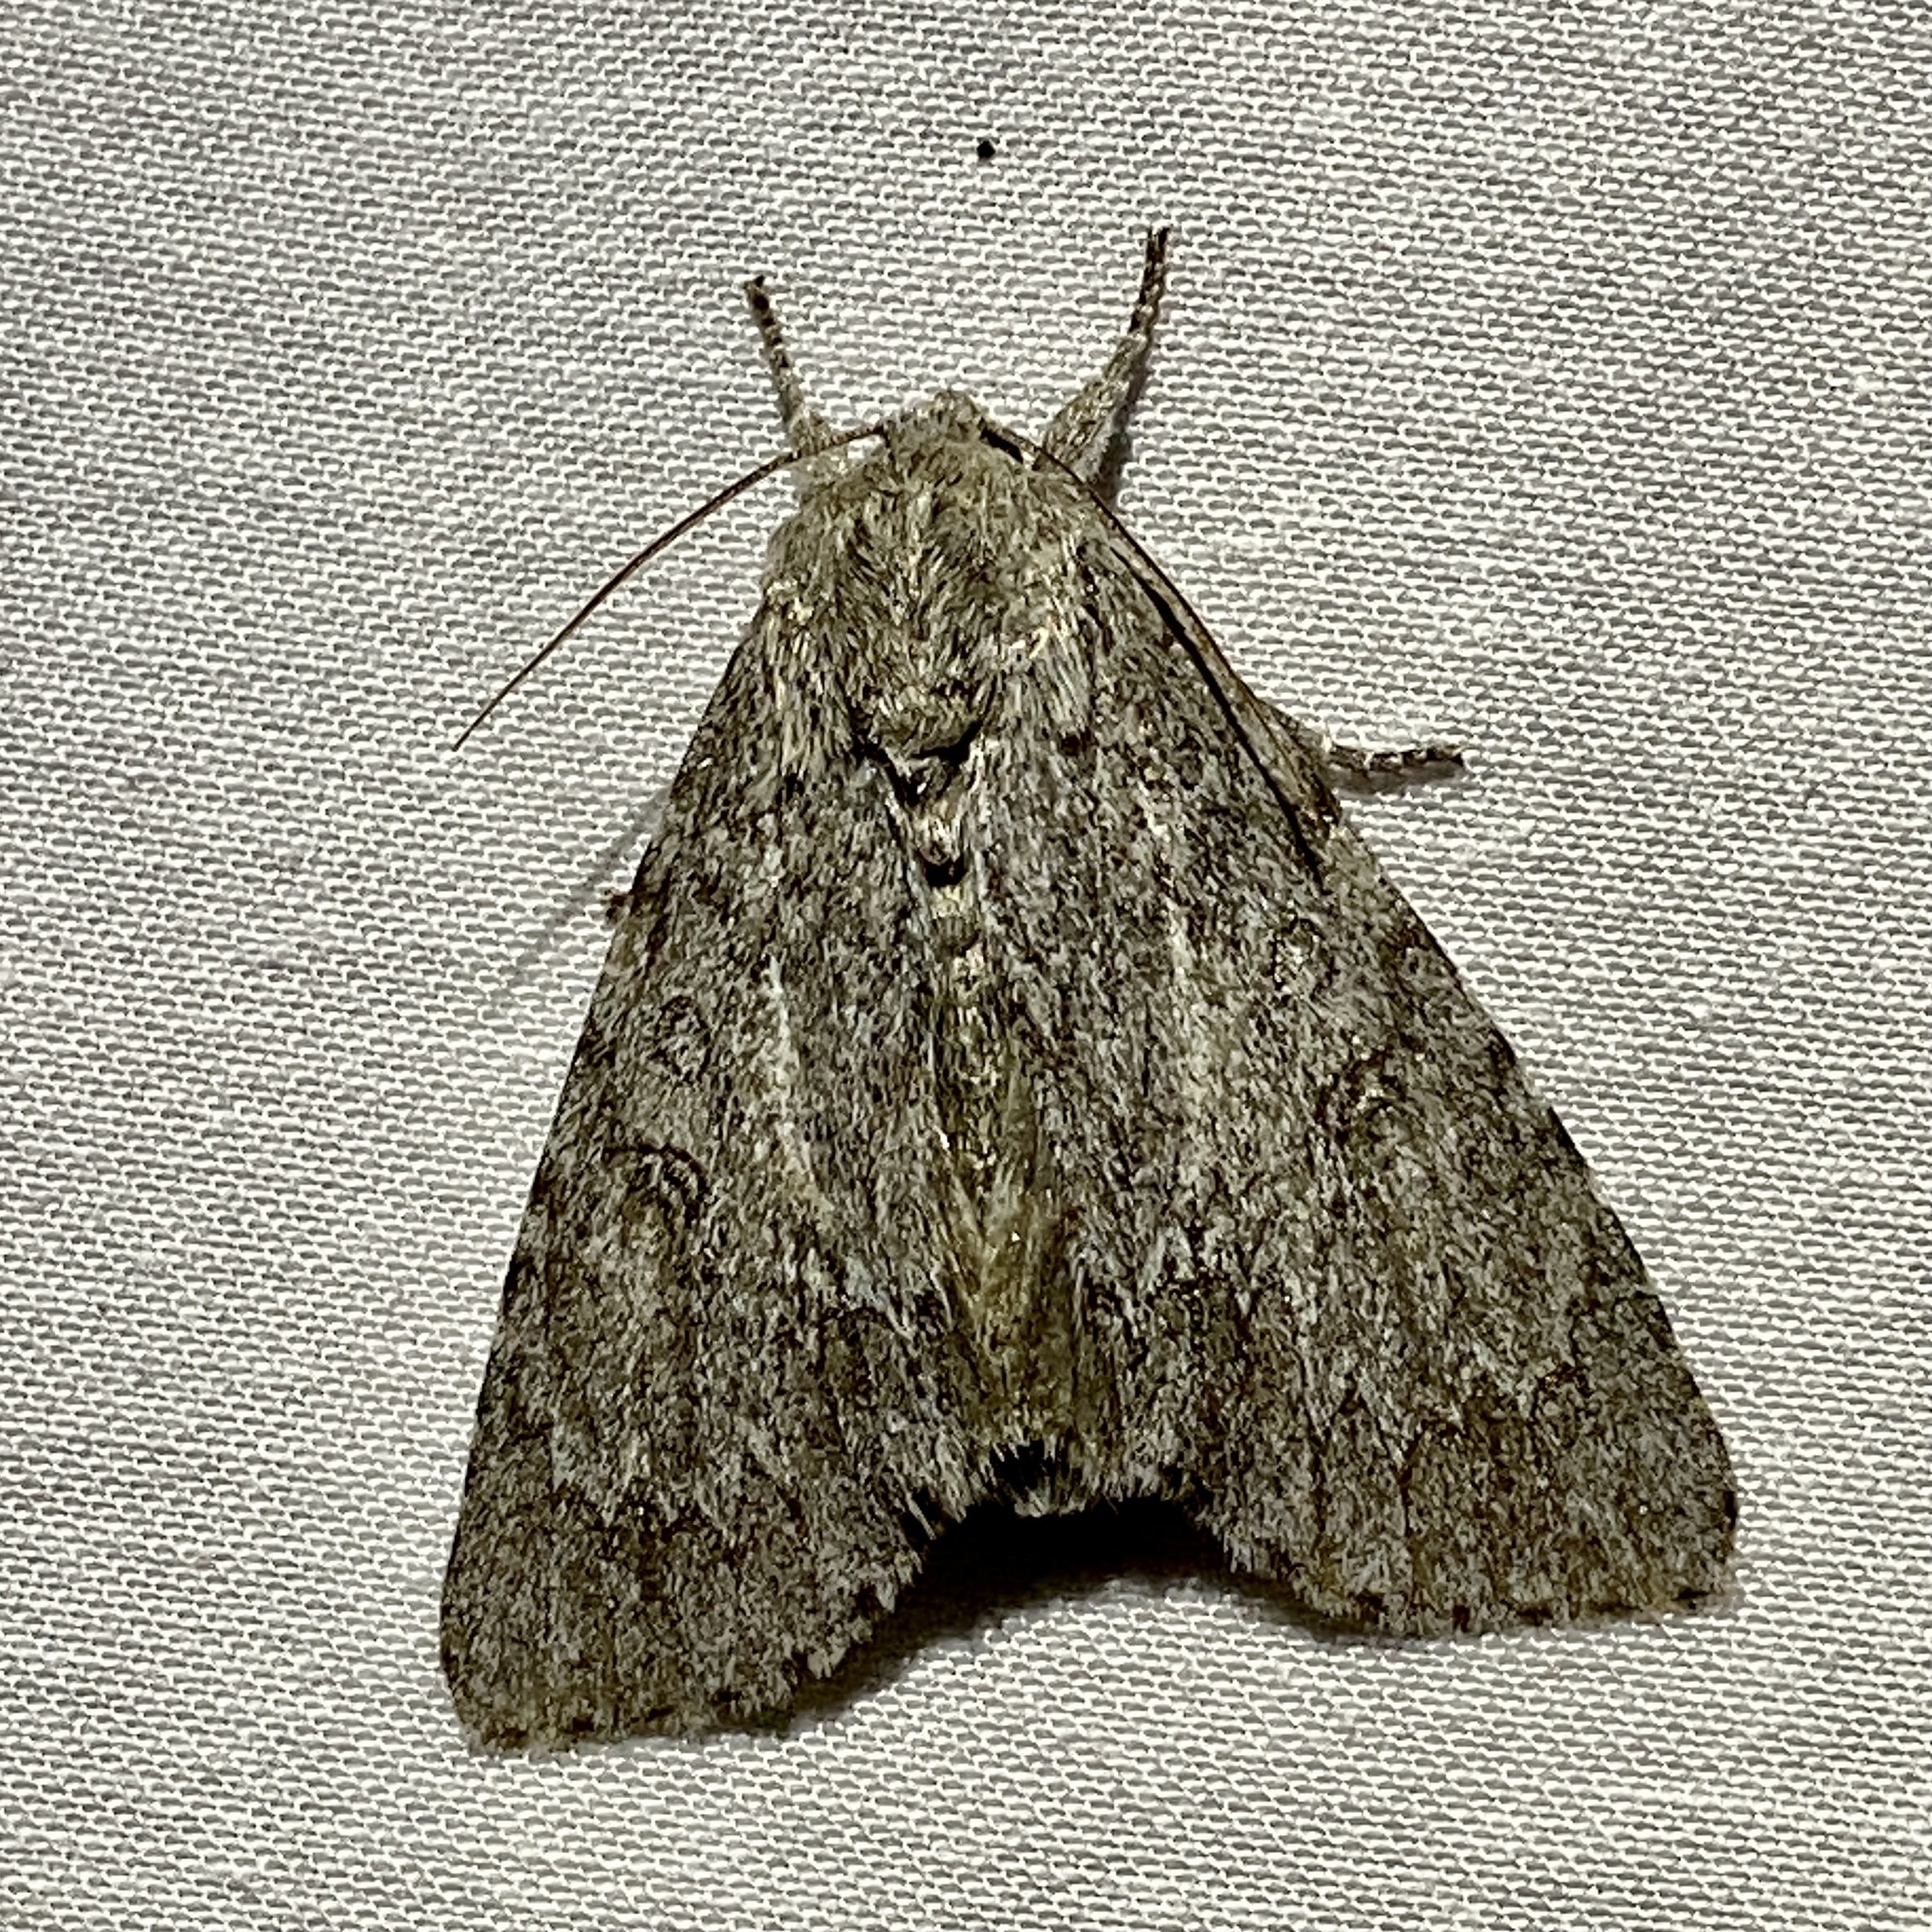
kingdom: Animalia
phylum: Arthropoda
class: Insecta
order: Lepidoptera
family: Noctuidae
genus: Acronicta
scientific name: Acronicta americana
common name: American dagger
